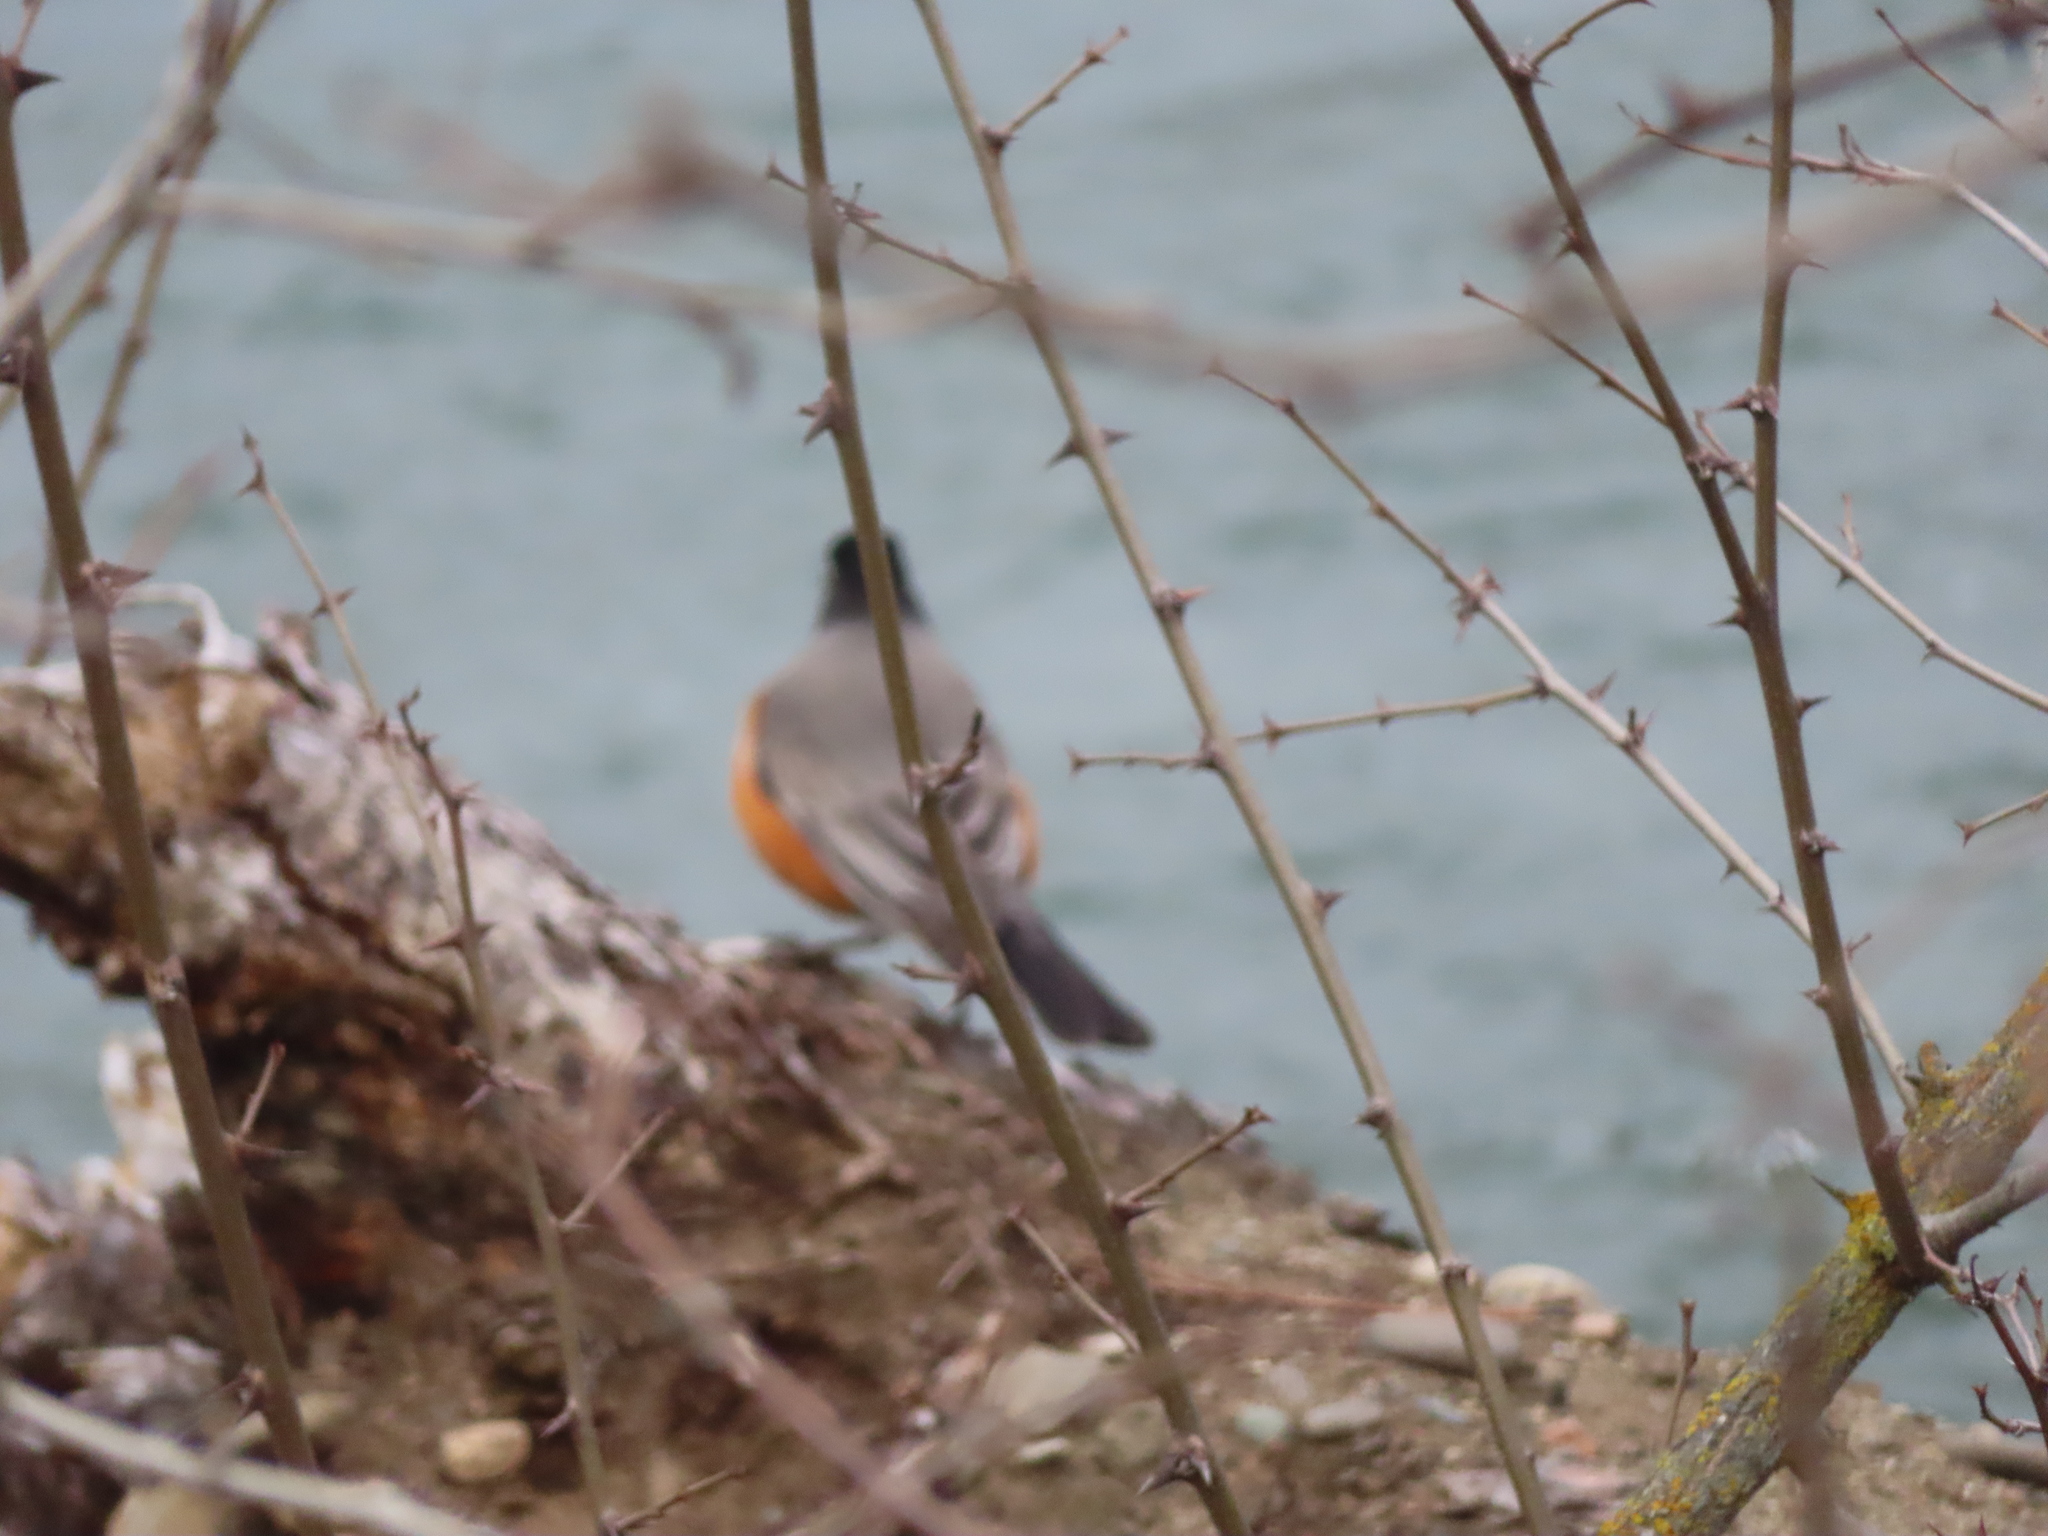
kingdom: Animalia
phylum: Chordata
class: Aves
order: Passeriformes
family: Turdidae
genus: Turdus
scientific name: Turdus migratorius
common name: American robin
